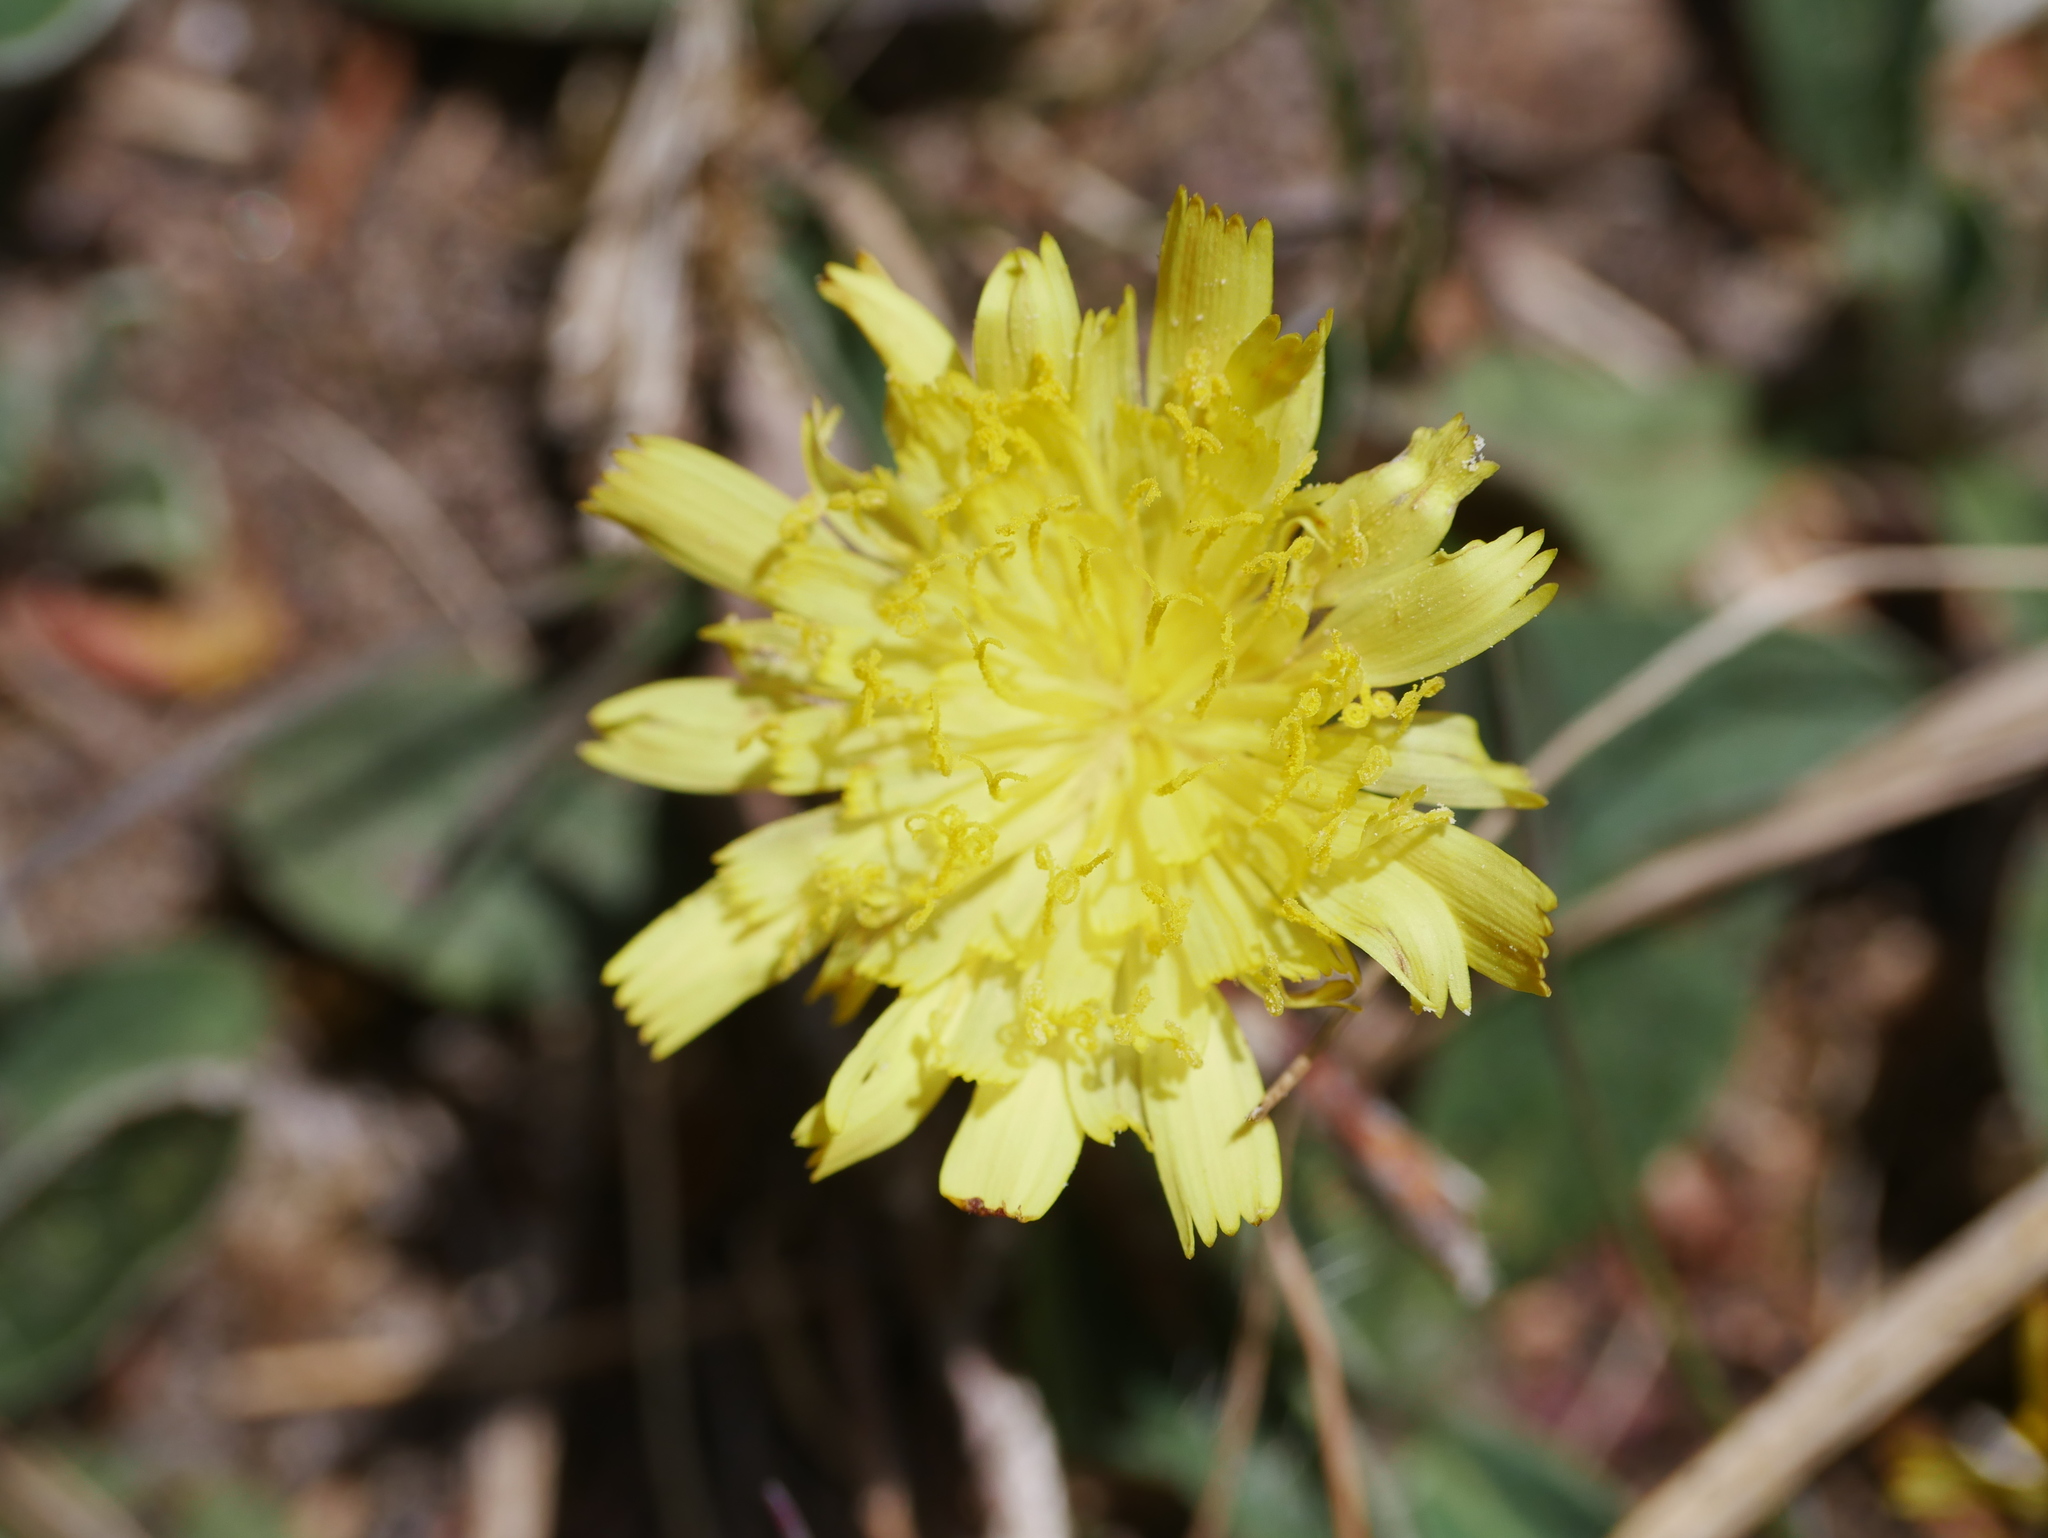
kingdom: Plantae
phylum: Tracheophyta
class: Magnoliopsida
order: Asterales
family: Asteraceae
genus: Pilosella
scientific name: Pilosella officinarum
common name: Mouse-ear hawkweed
